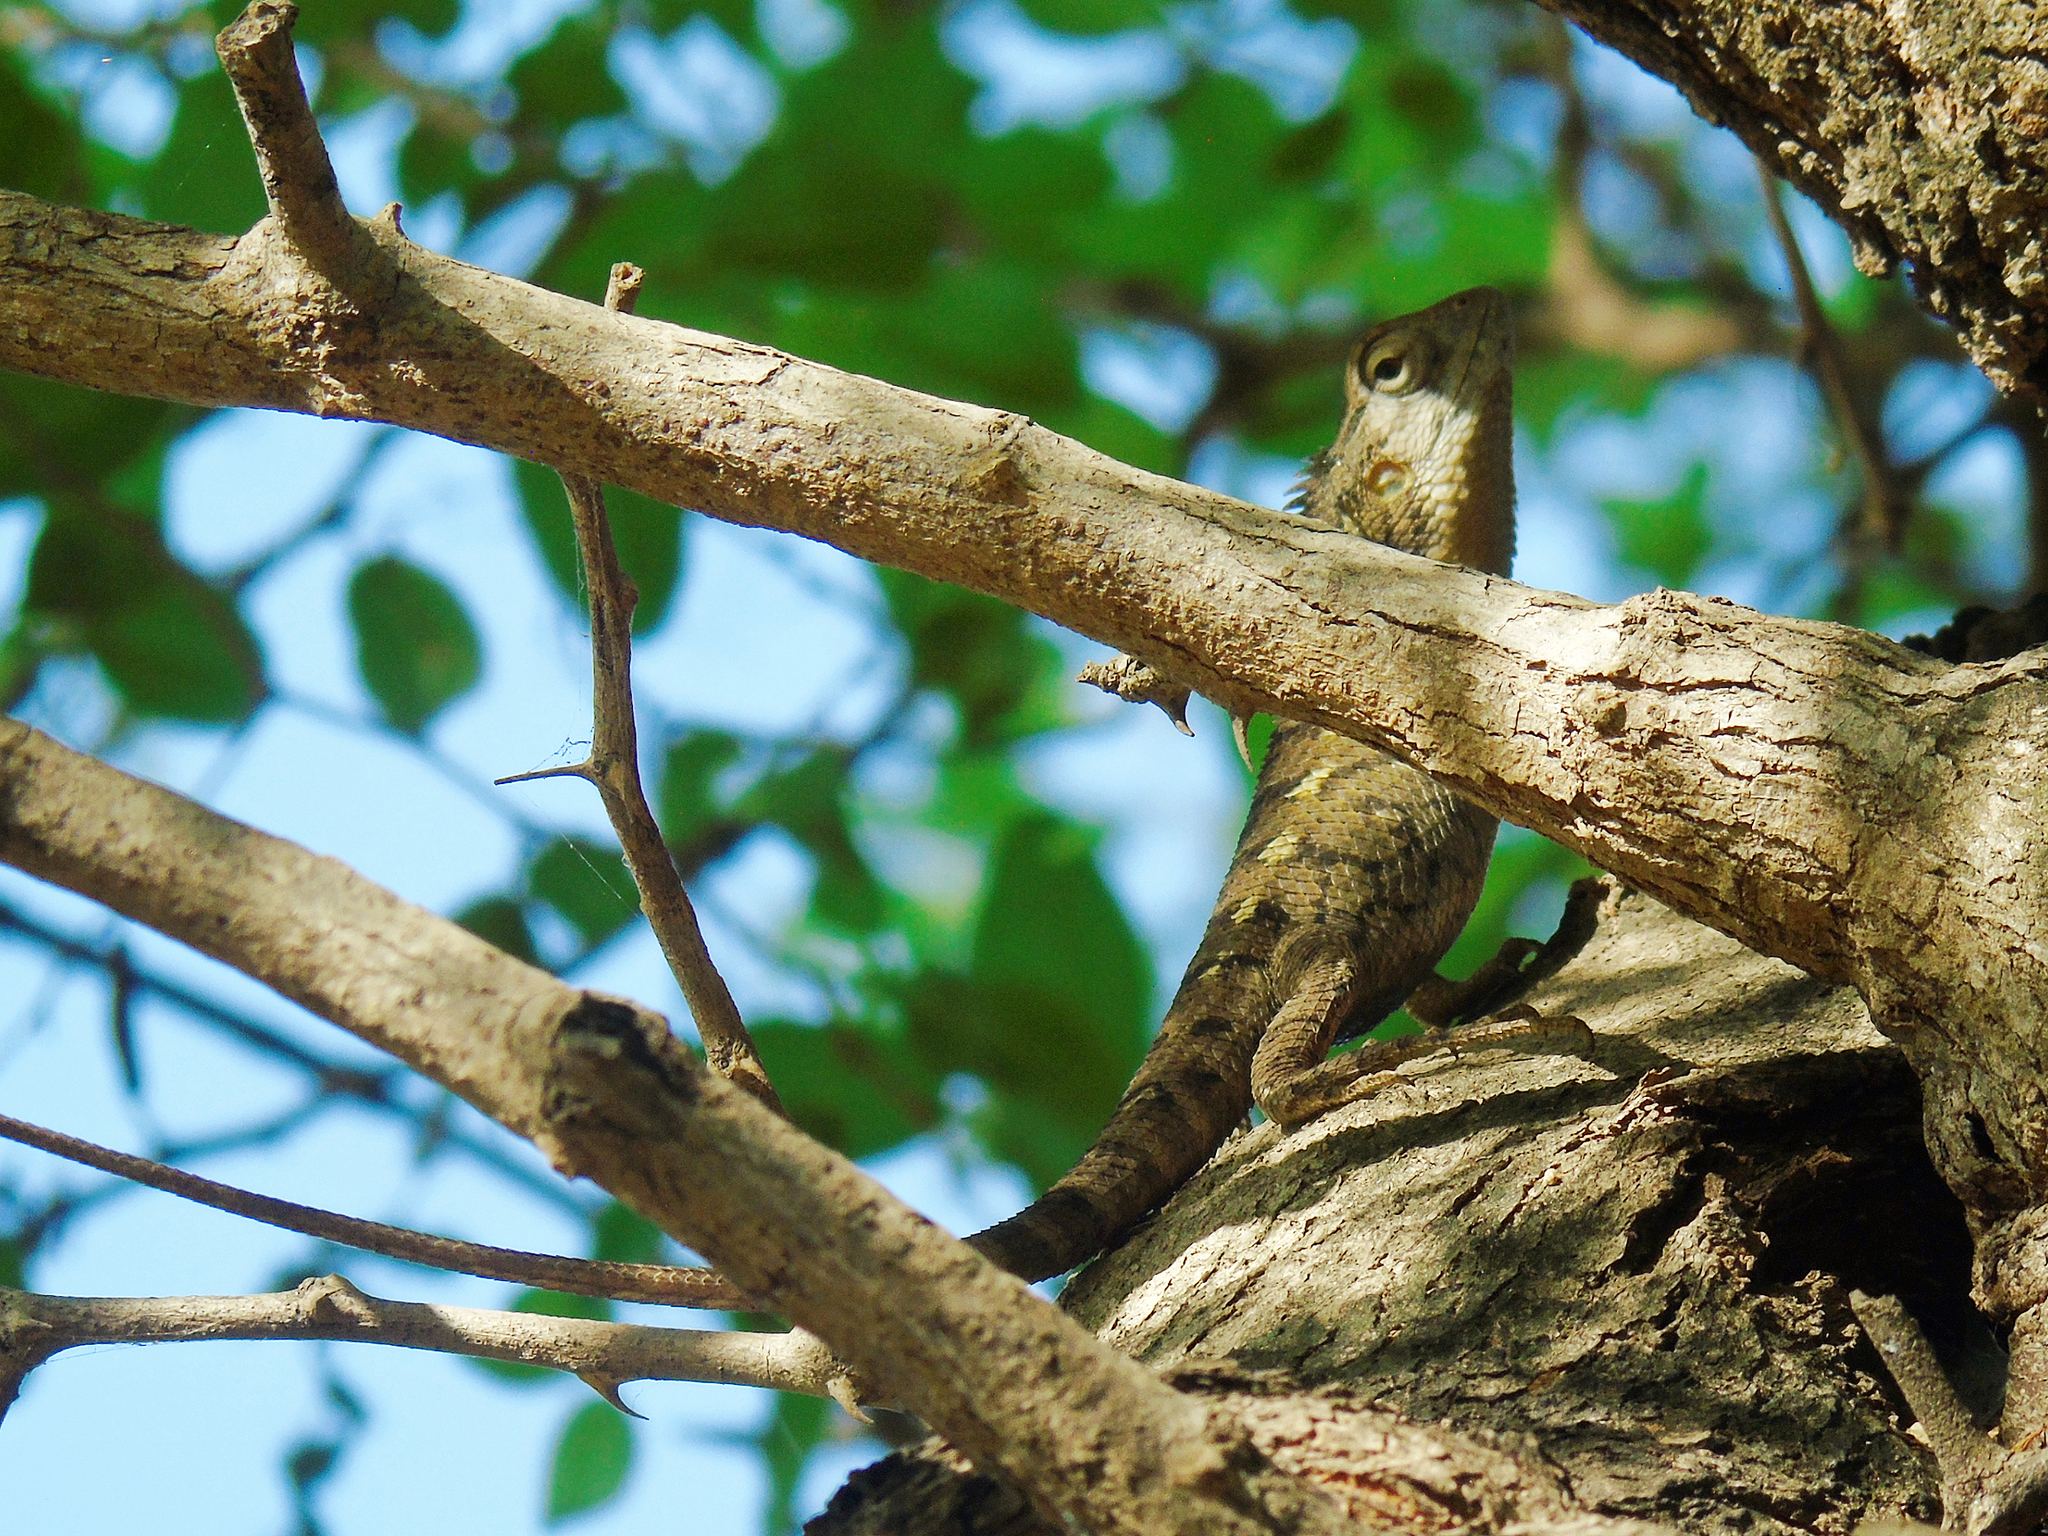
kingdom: Animalia
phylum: Chordata
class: Squamata
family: Agamidae
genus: Calotes
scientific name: Calotes versicolor
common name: Oriental garden lizard
